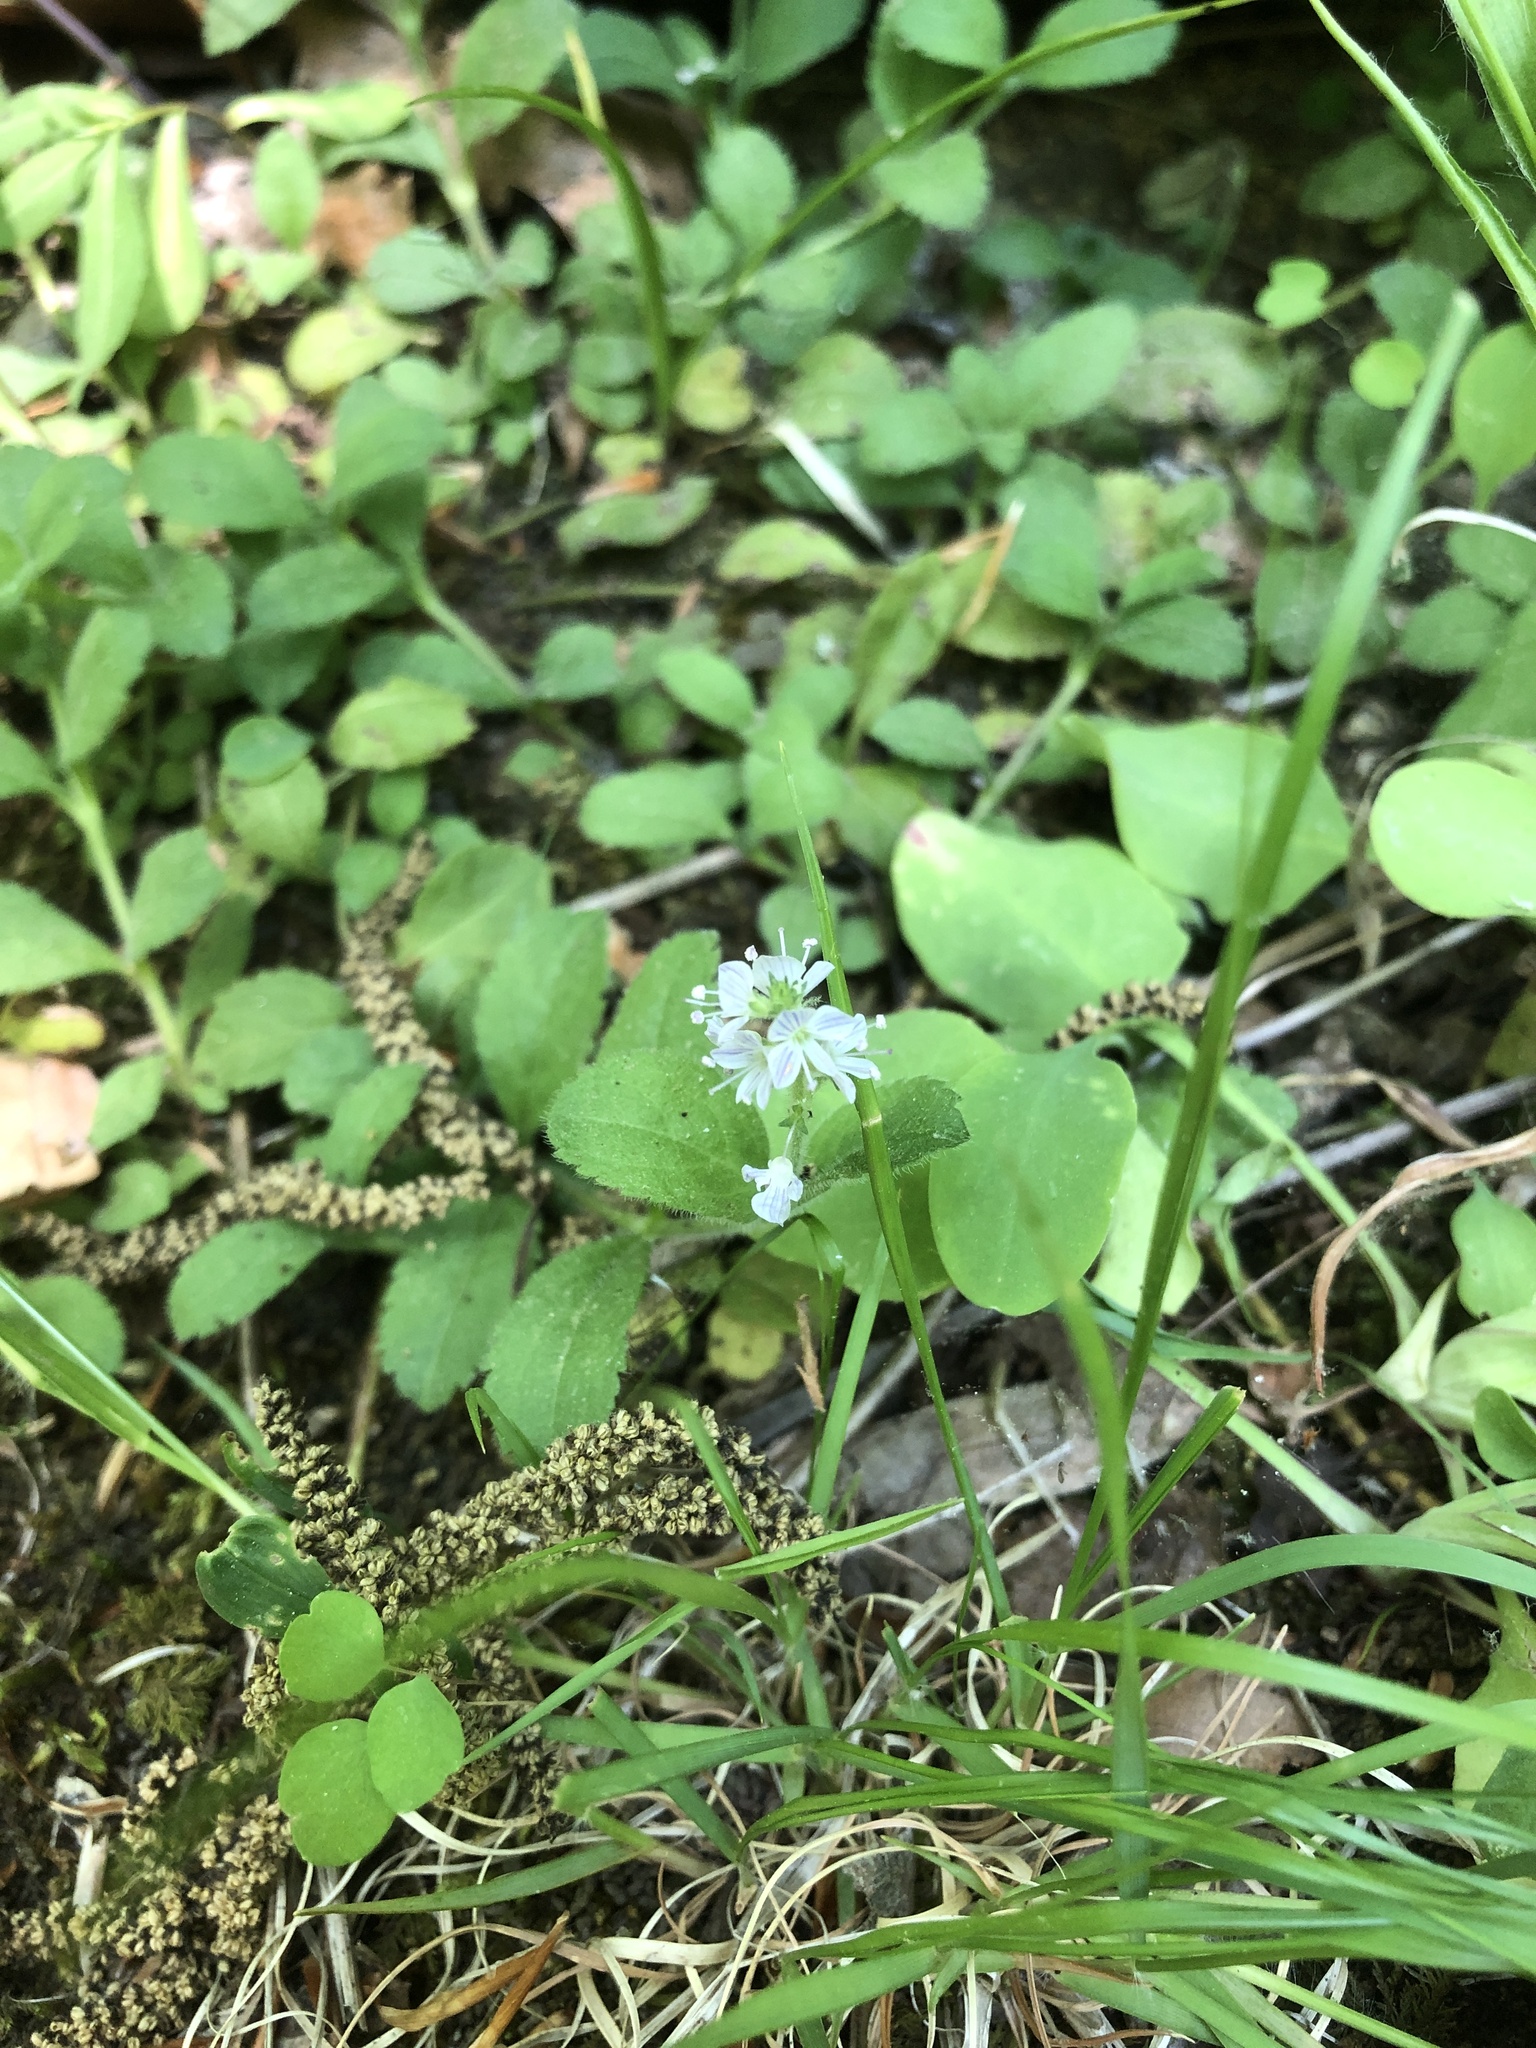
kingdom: Plantae
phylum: Tracheophyta
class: Magnoliopsida
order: Lamiales
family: Plantaginaceae
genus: Veronica
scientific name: Veronica officinalis
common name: Common speedwell
